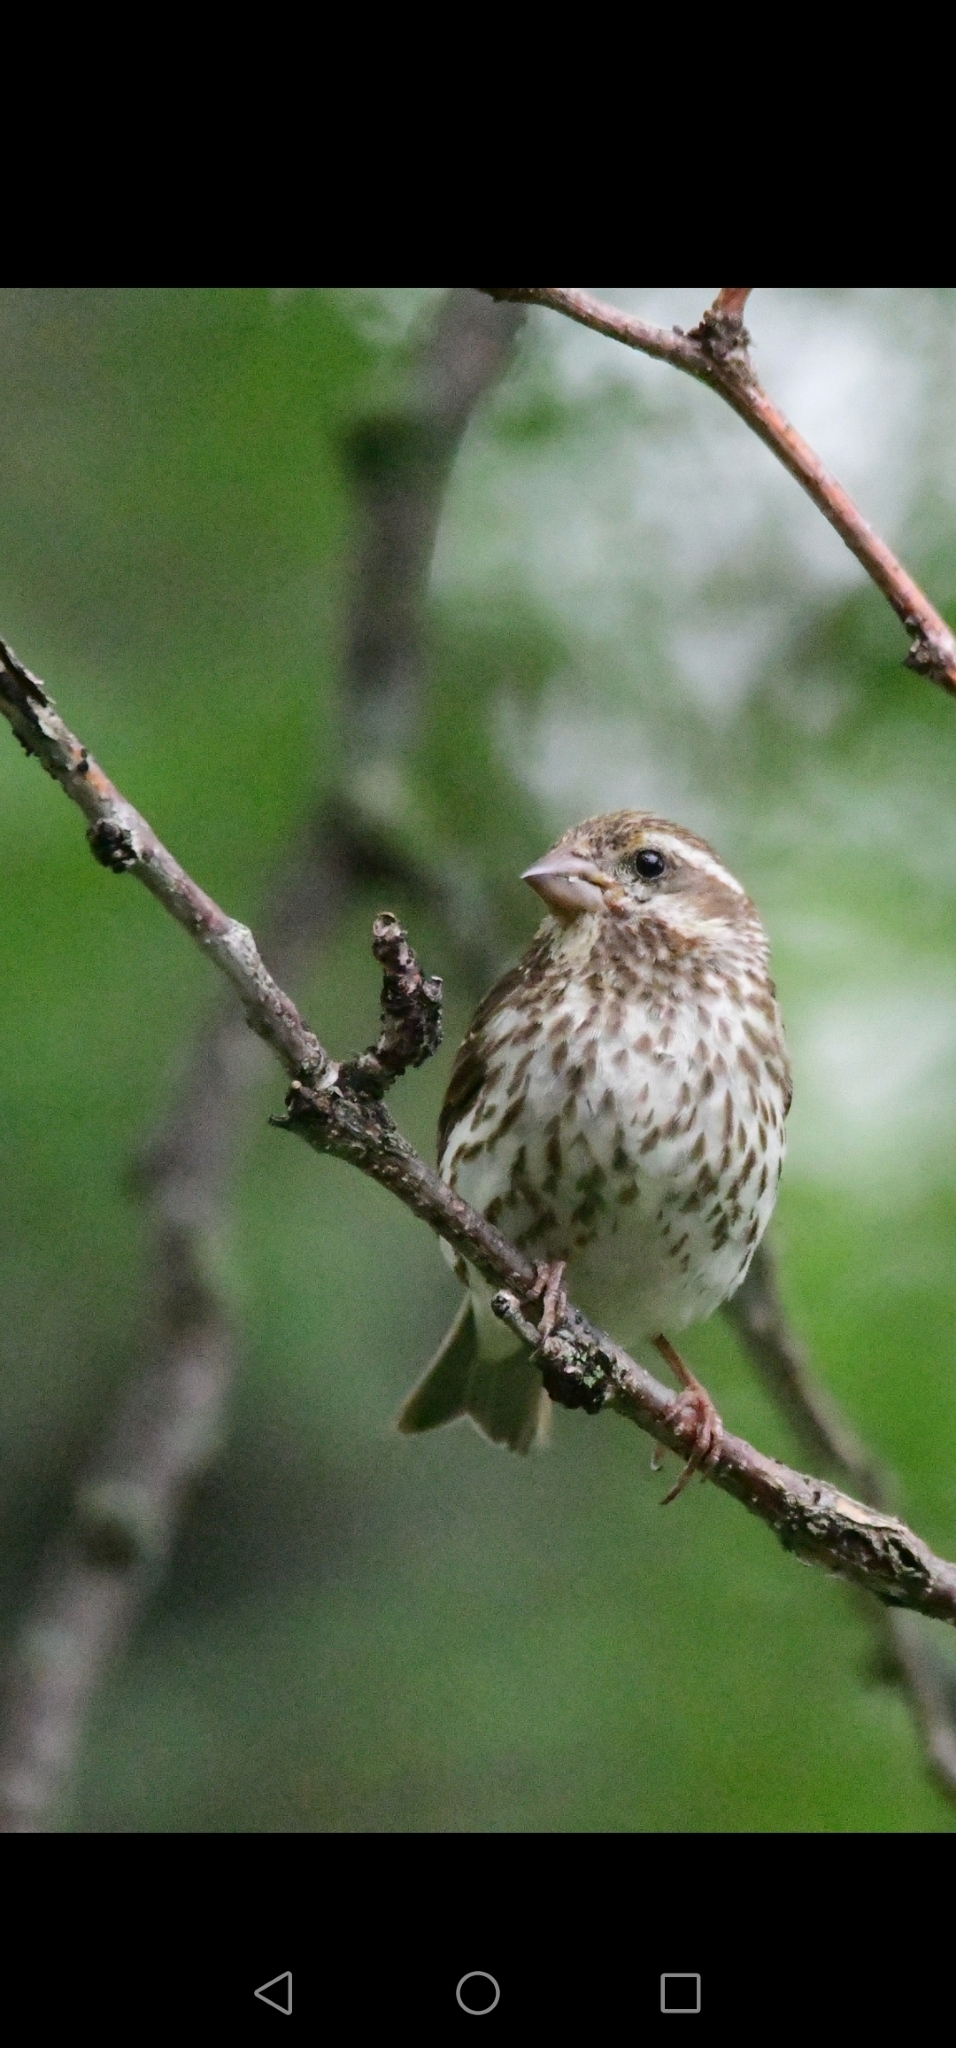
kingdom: Animalia
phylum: Chordata
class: Aves
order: Passeriformes
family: Fringillidae
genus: Haemorhous
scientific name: Haemorhous purpureus
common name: Purple finch
